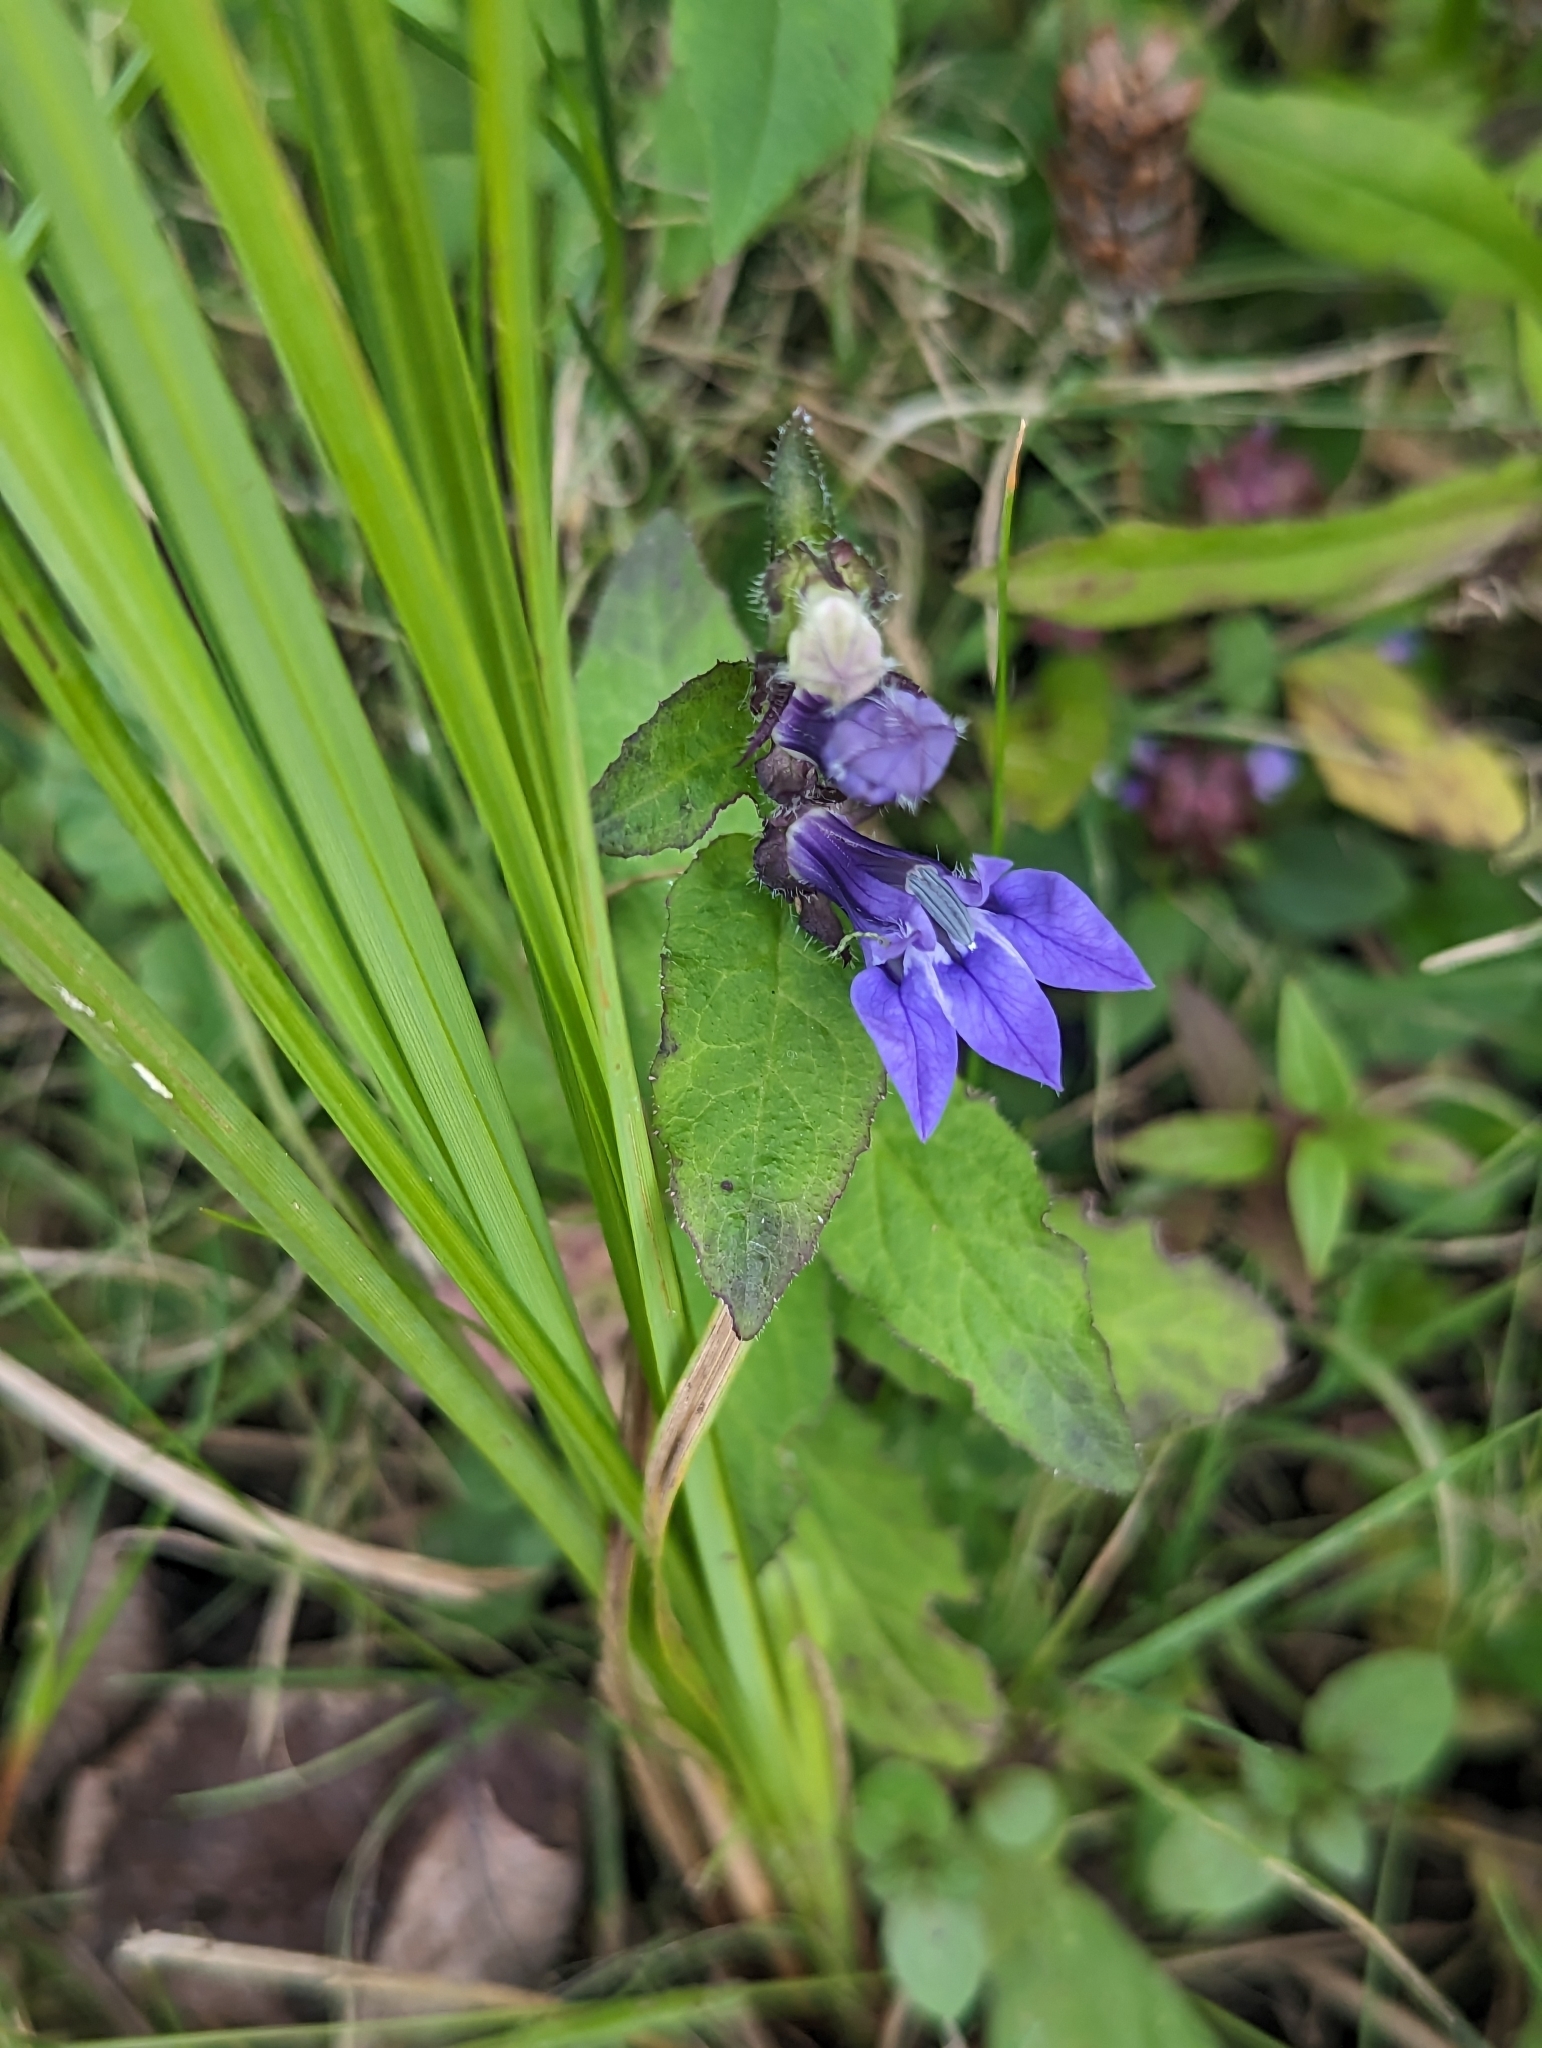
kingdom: Plantae
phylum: Tracheophyta
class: Magnoliopsida
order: Asterales
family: Campanulaceae
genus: Lobelia
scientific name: Lobelia siphilitica
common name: Great lobelia
